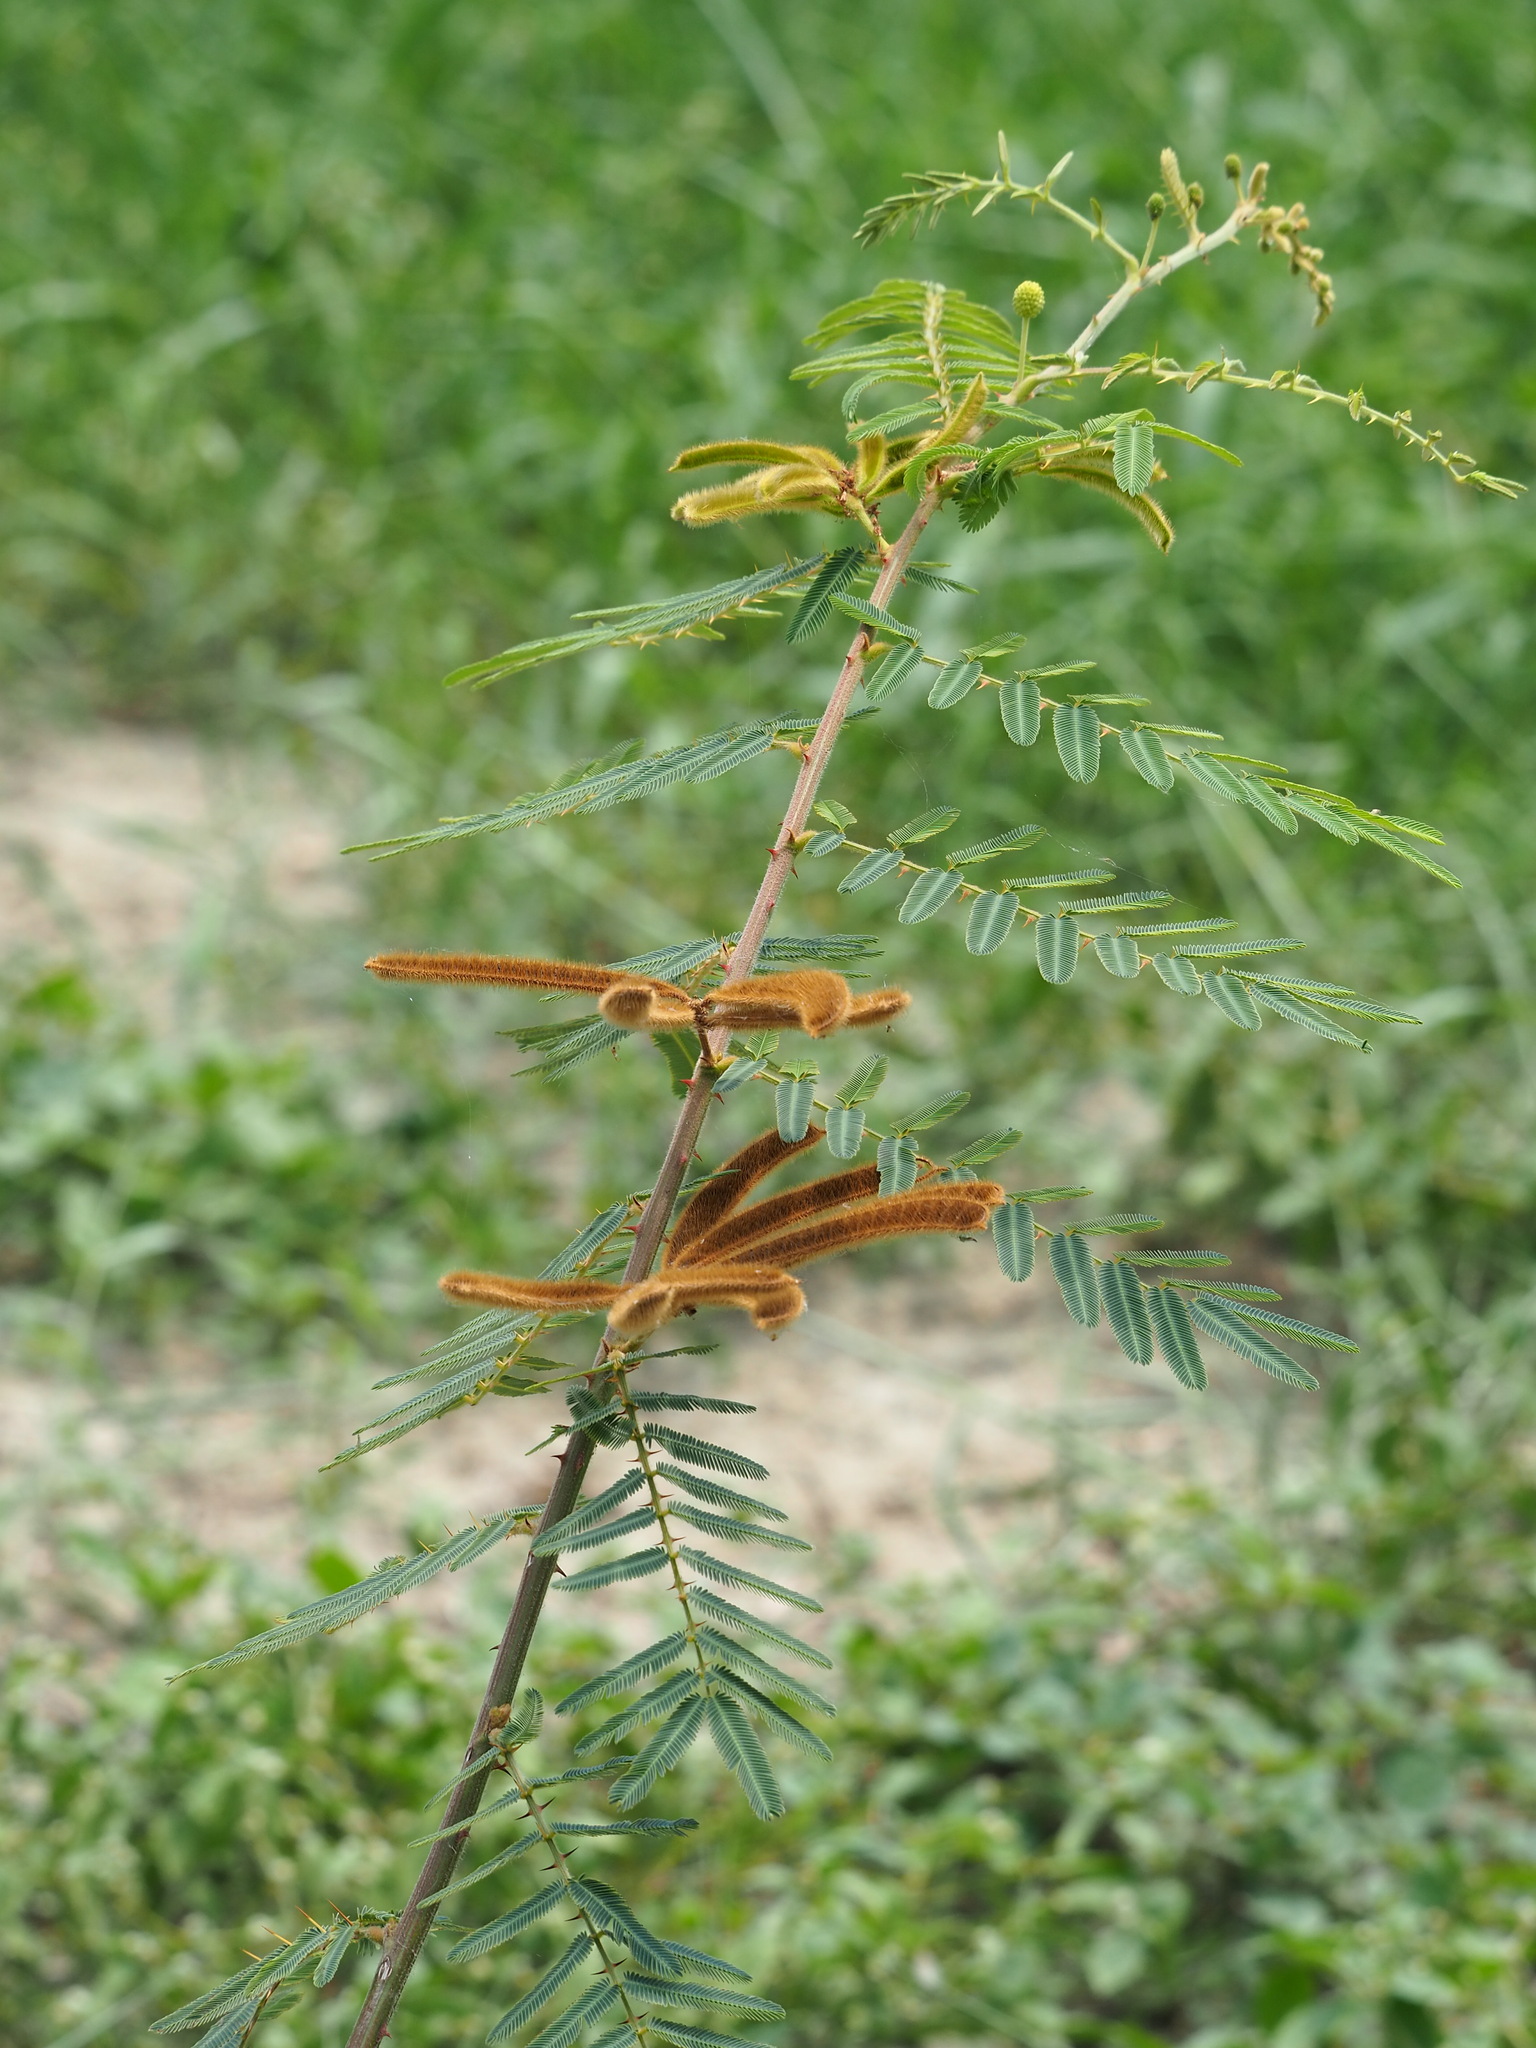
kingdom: Plantae
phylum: Tracheophyta
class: Magnoliopsida
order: Fabales
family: Fabaceae
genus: Mimosa
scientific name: Mimosa pigra
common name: Black mimosa
